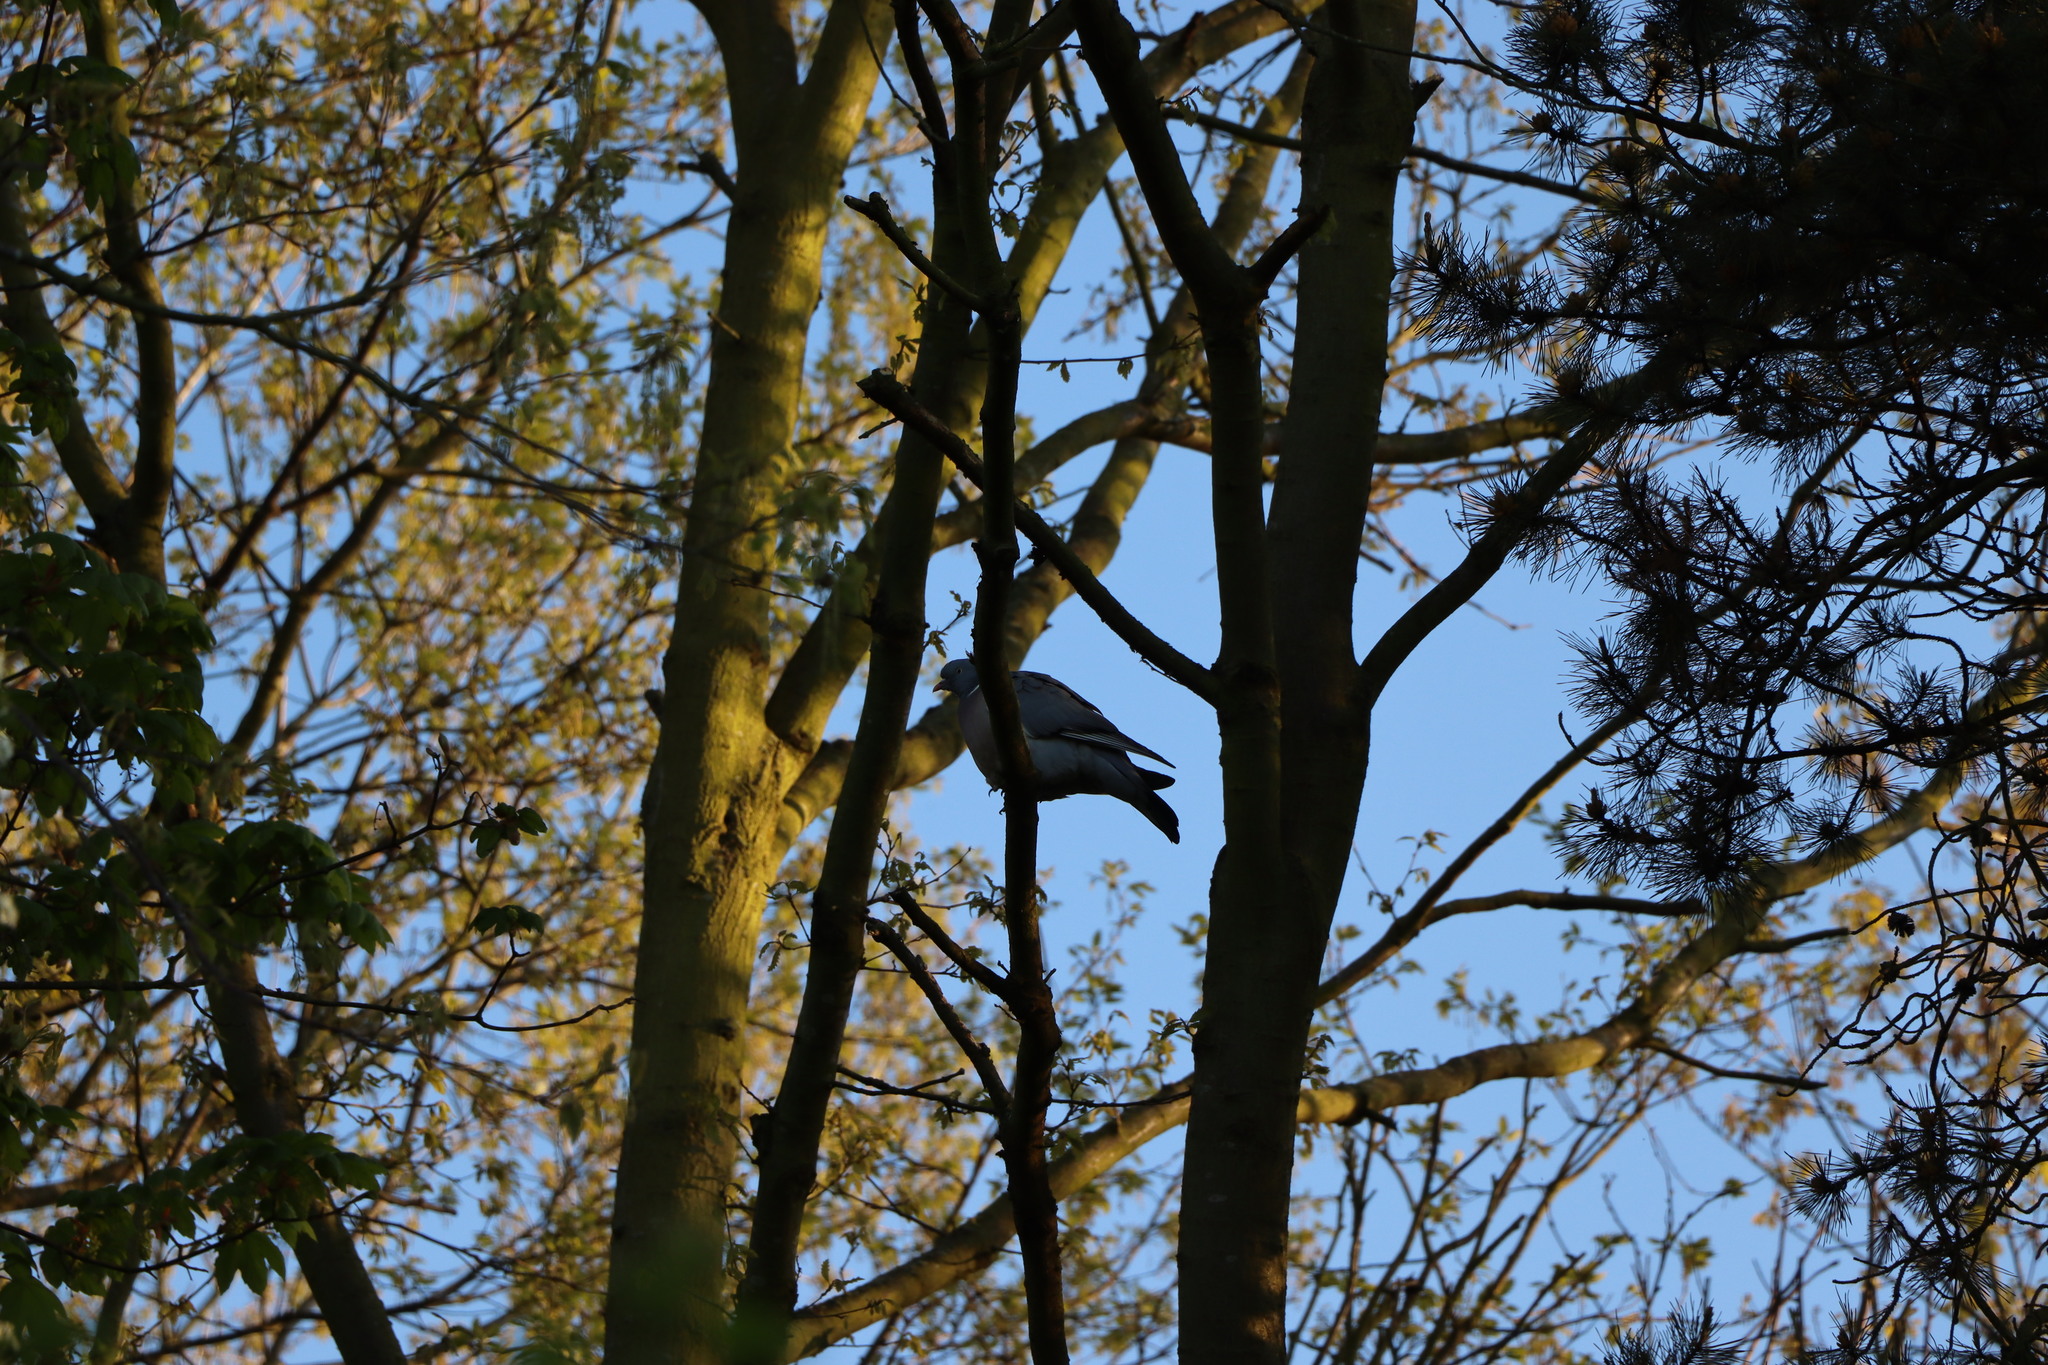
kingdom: Animalia
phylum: Chordata
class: Aves
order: Columbiformes
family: Columbidae
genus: Columba
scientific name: Columba palumbus
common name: Common wood pigeon
